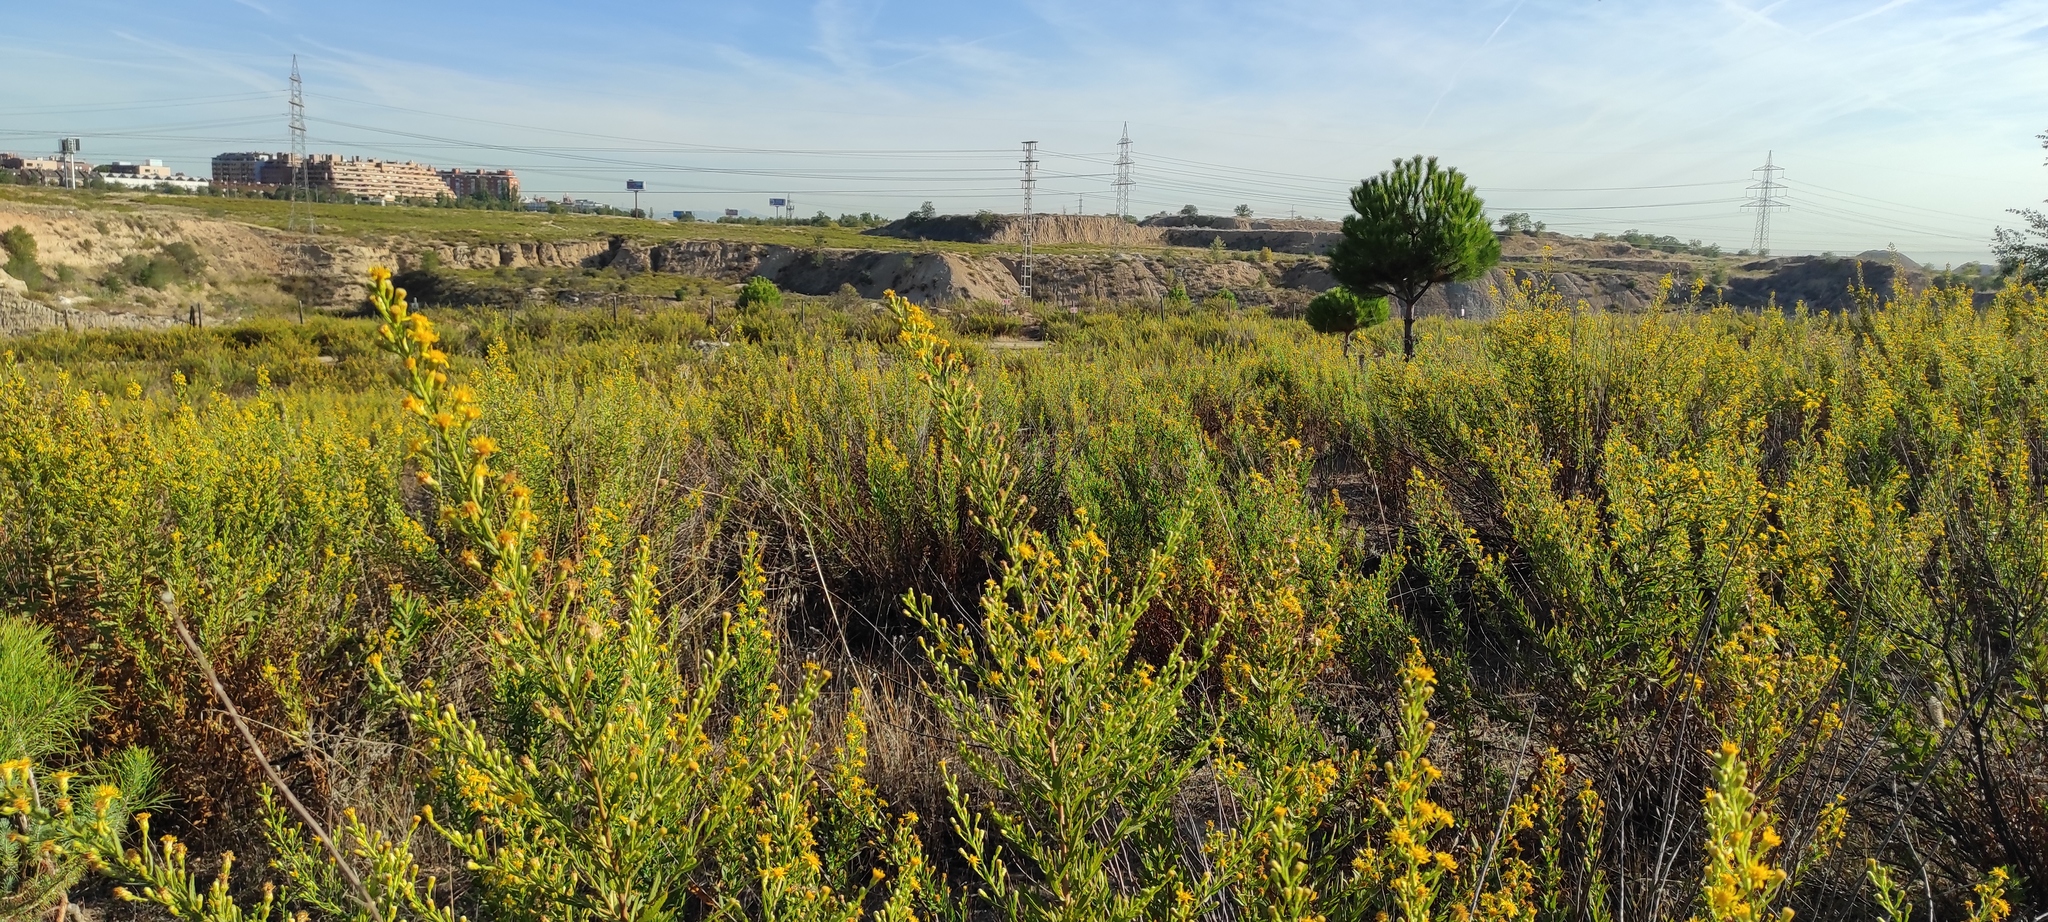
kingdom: Plantae
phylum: Tracheophyta
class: Magnoliopsida
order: Asterales
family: Asteraceae
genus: Dittrichia
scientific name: Dittrichia viscosa
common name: Woody fleabane
